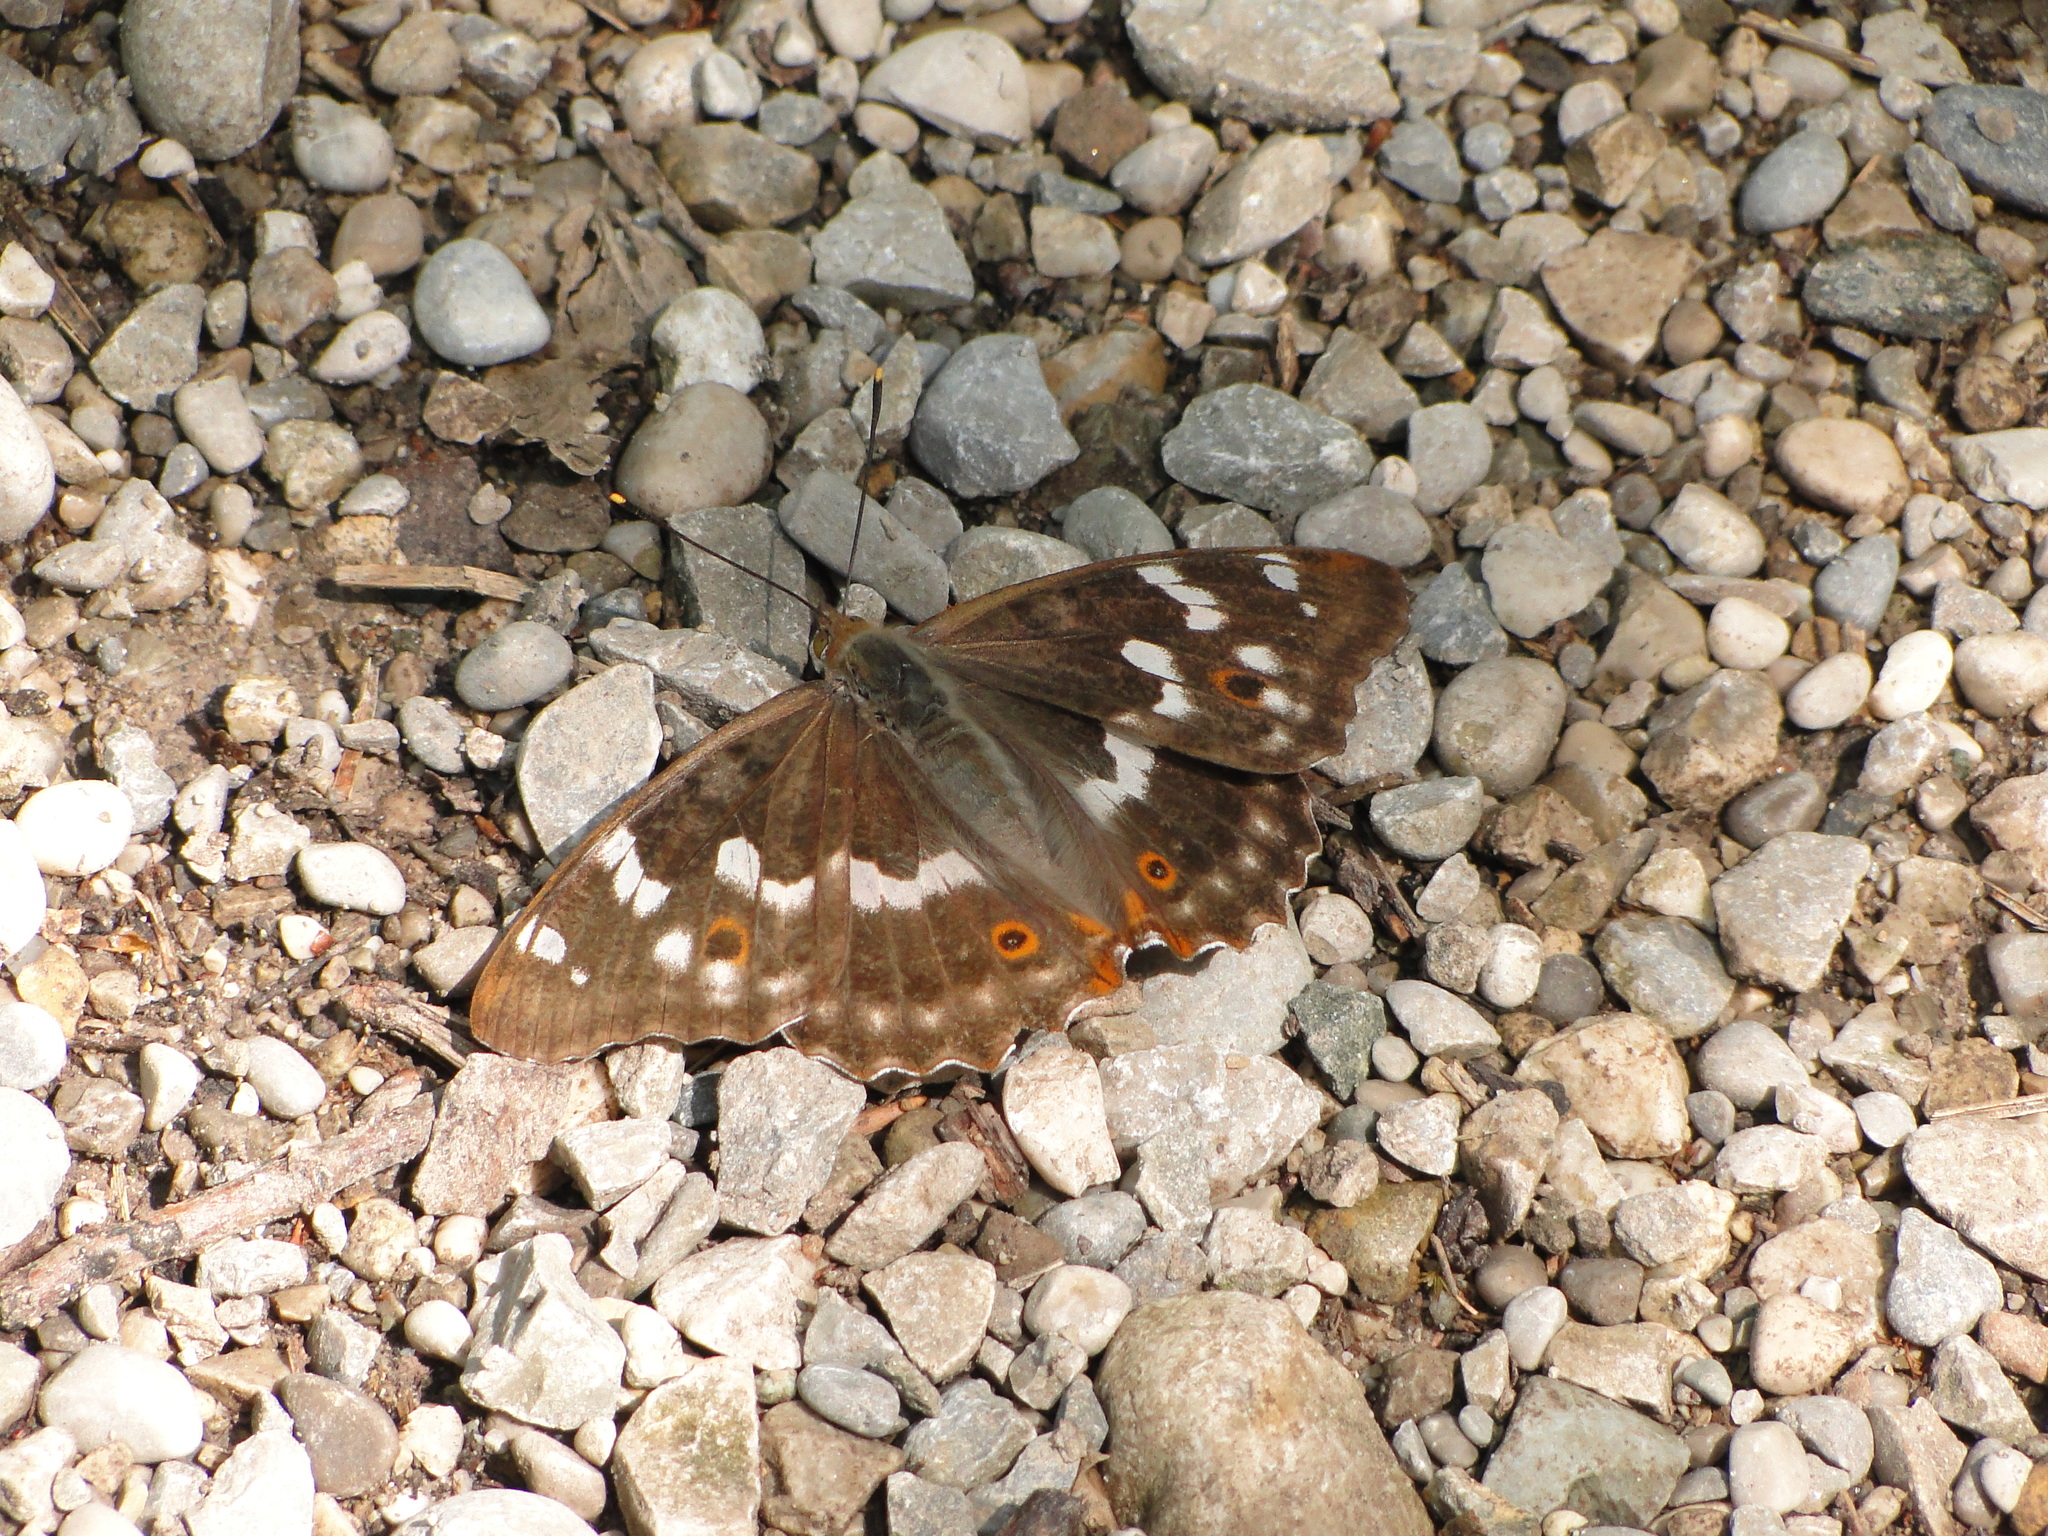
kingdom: Animalia
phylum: Arthropoda
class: Insecta
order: Lepidoptera
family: Nymphalidae
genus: Apatura
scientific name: Apatura ilia
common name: Lesser purple emperor
